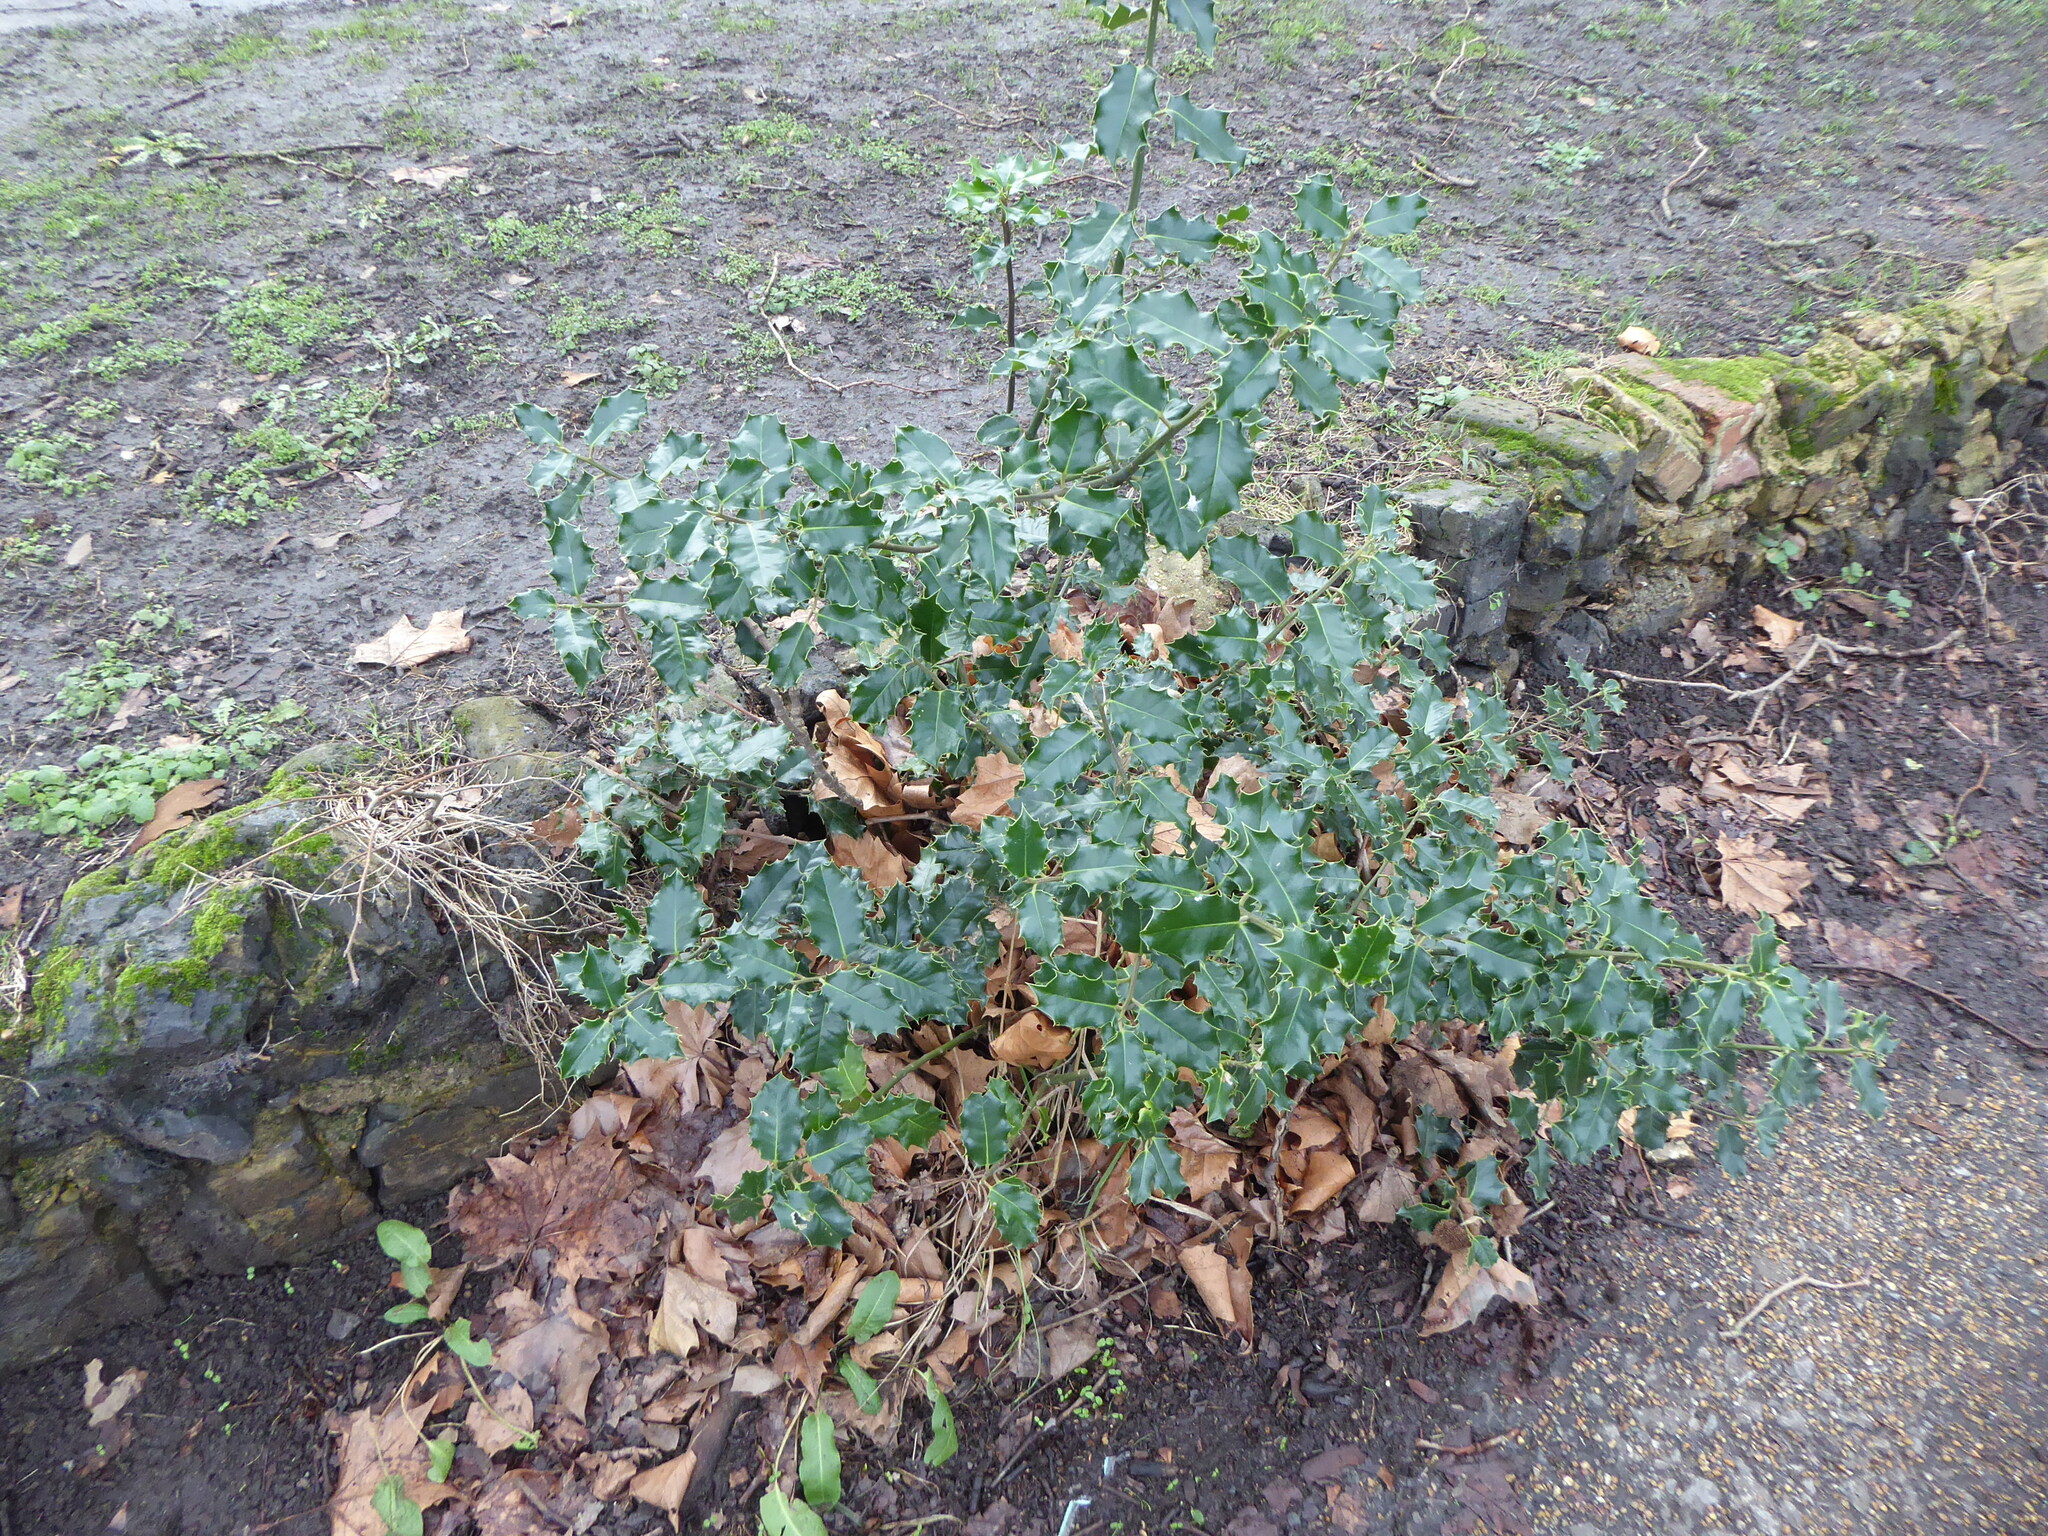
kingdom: Plantae
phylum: Tracheophyta
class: Magnoliopsida
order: Aquifoliales
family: Aquifoliaceae
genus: Ilex
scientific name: Ilex aquifolium
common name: English holly
